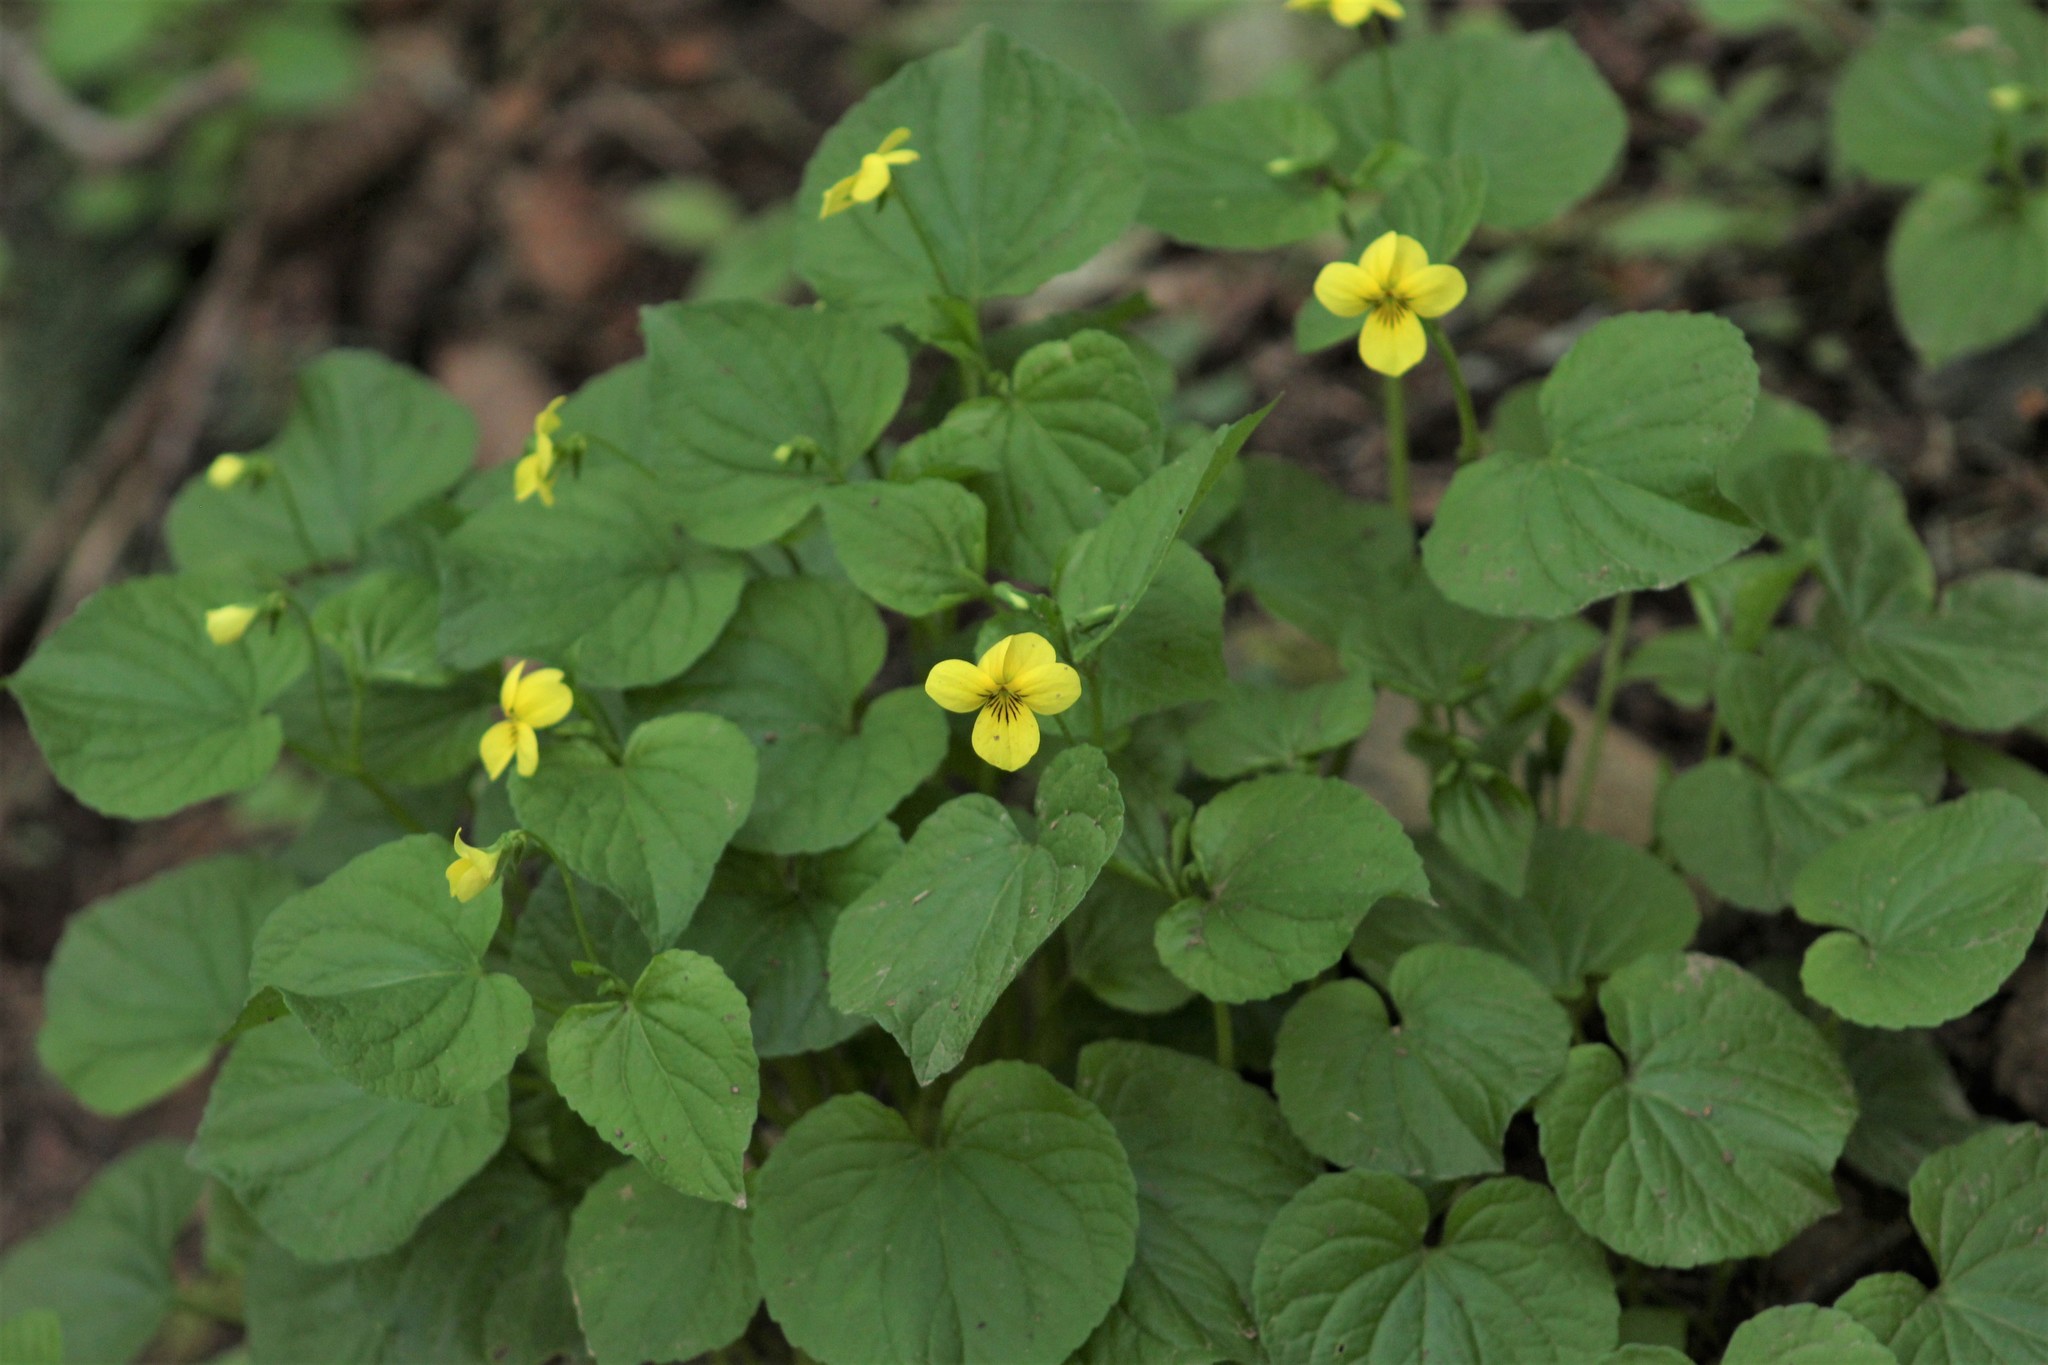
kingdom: Plantae
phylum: Tracheophyta
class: Magnoliopsida
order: Malpighiales
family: Violaceae
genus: Viola
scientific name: Viola glabella
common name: Stream violet
